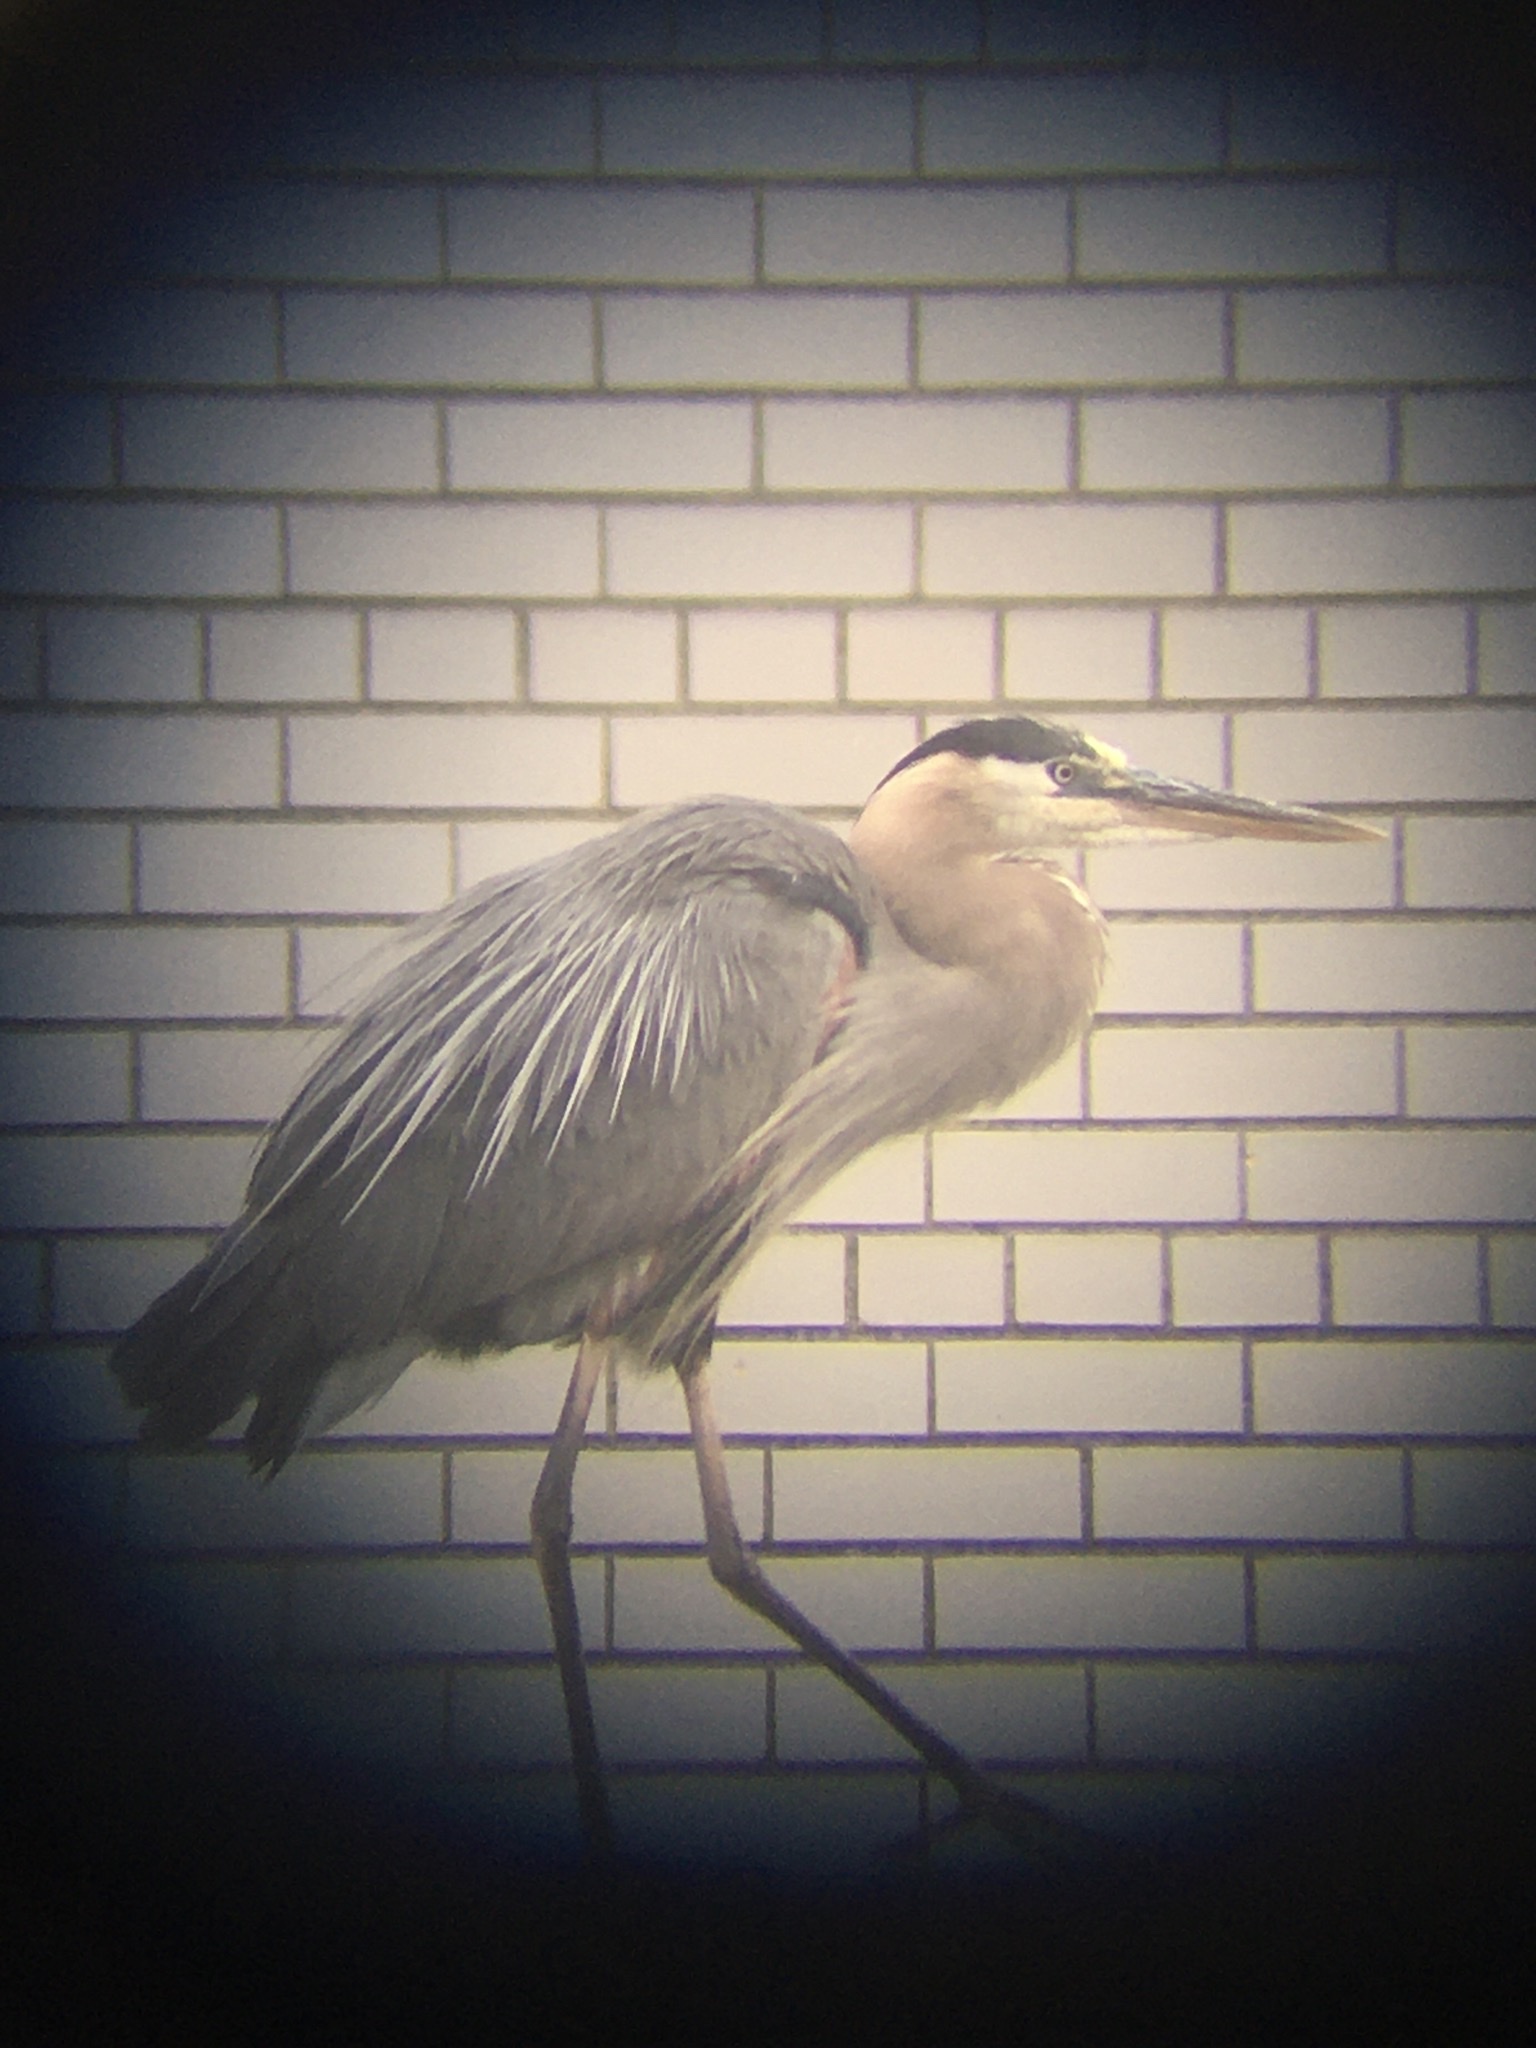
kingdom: Animalia
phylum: Chordata
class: Aves
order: Pelecaniformes
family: Ardeidae
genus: Ardea
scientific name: Ardea herodias
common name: Great blue heron
